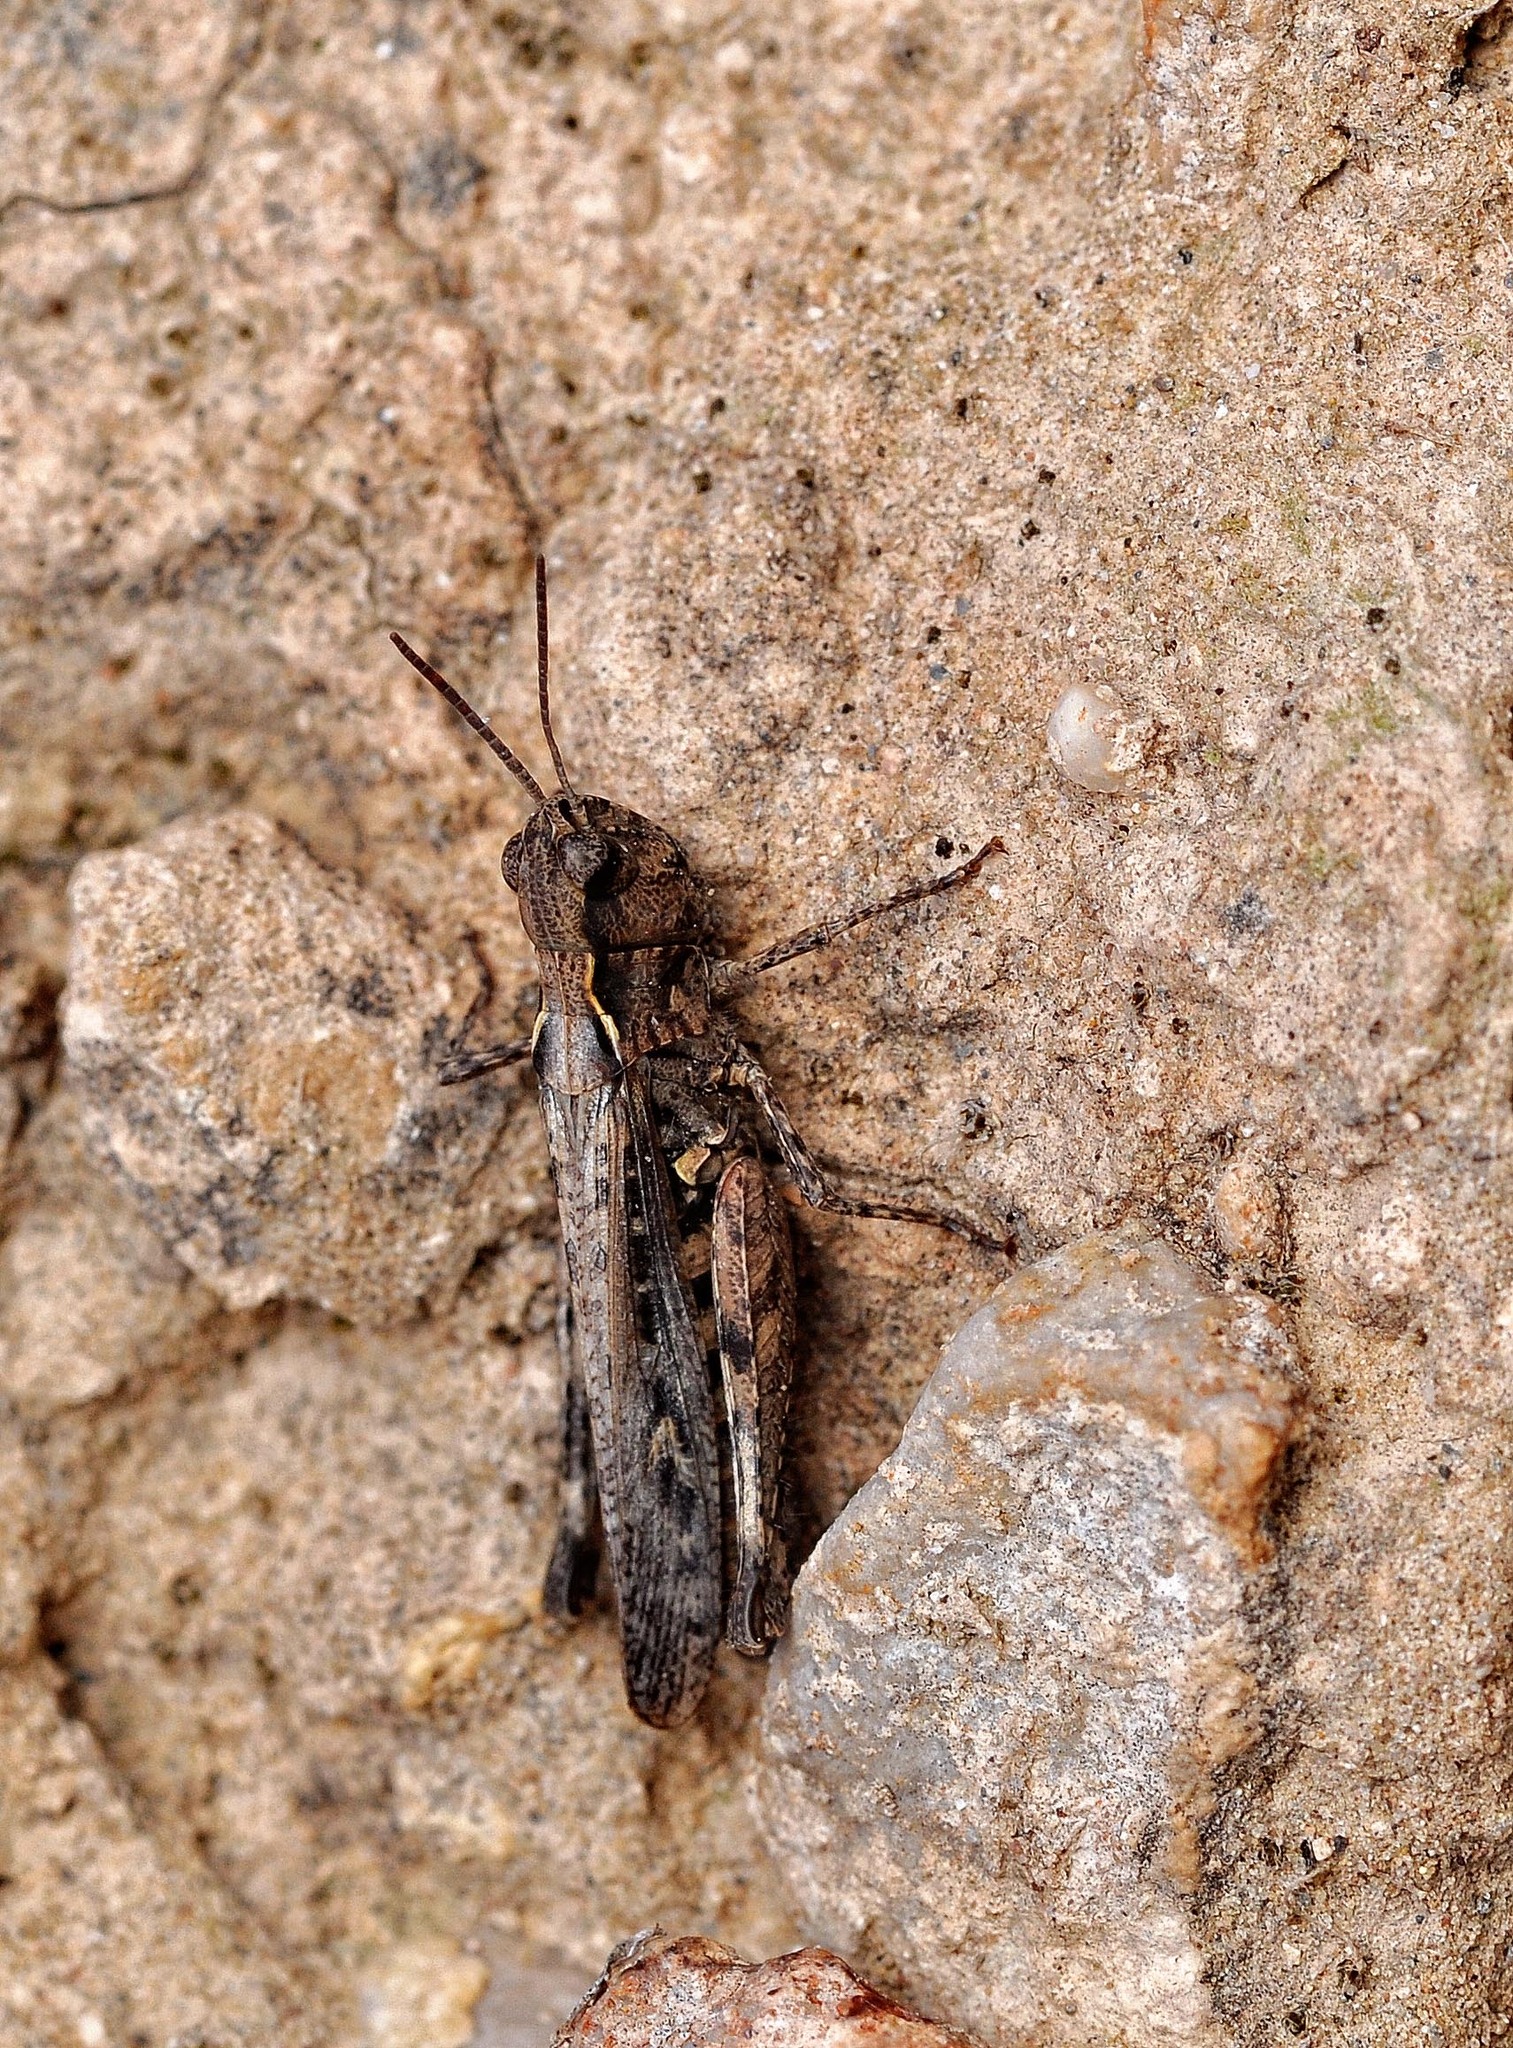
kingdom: Animalia
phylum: Arthropoda
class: Insecta
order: Orthoptera
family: Acrididae
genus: Omocestus
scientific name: Omocestus raymondi
